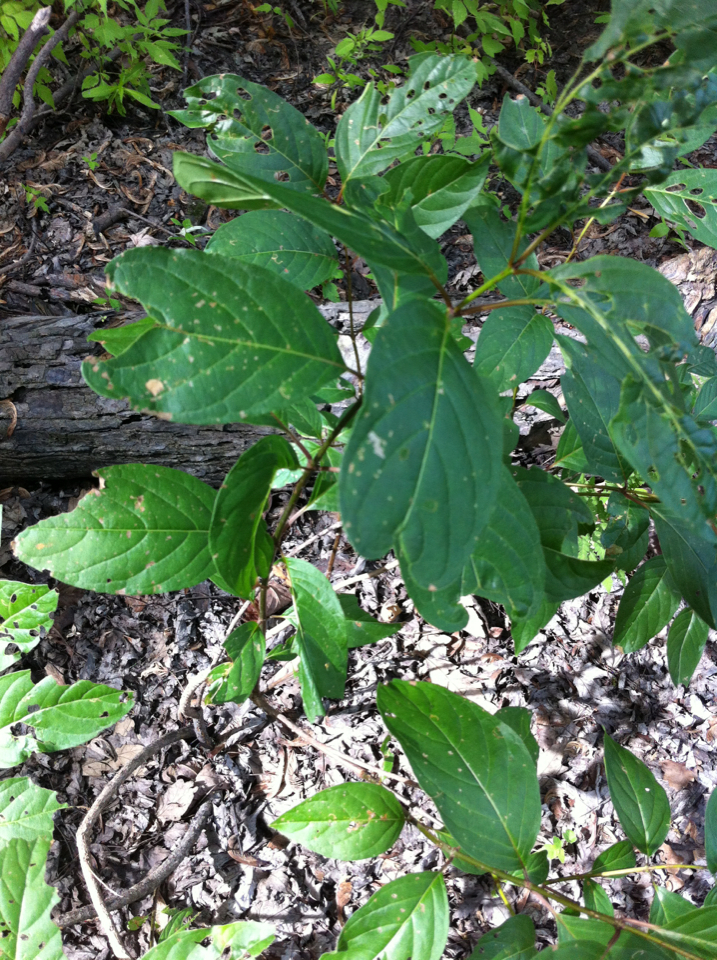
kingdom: Plantae
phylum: Tracheophyta
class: Magnoliopsida
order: Gentianales
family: Rubiaceae
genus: Cephalanthus
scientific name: Cephalanthus occidentalis
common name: Button-willow
